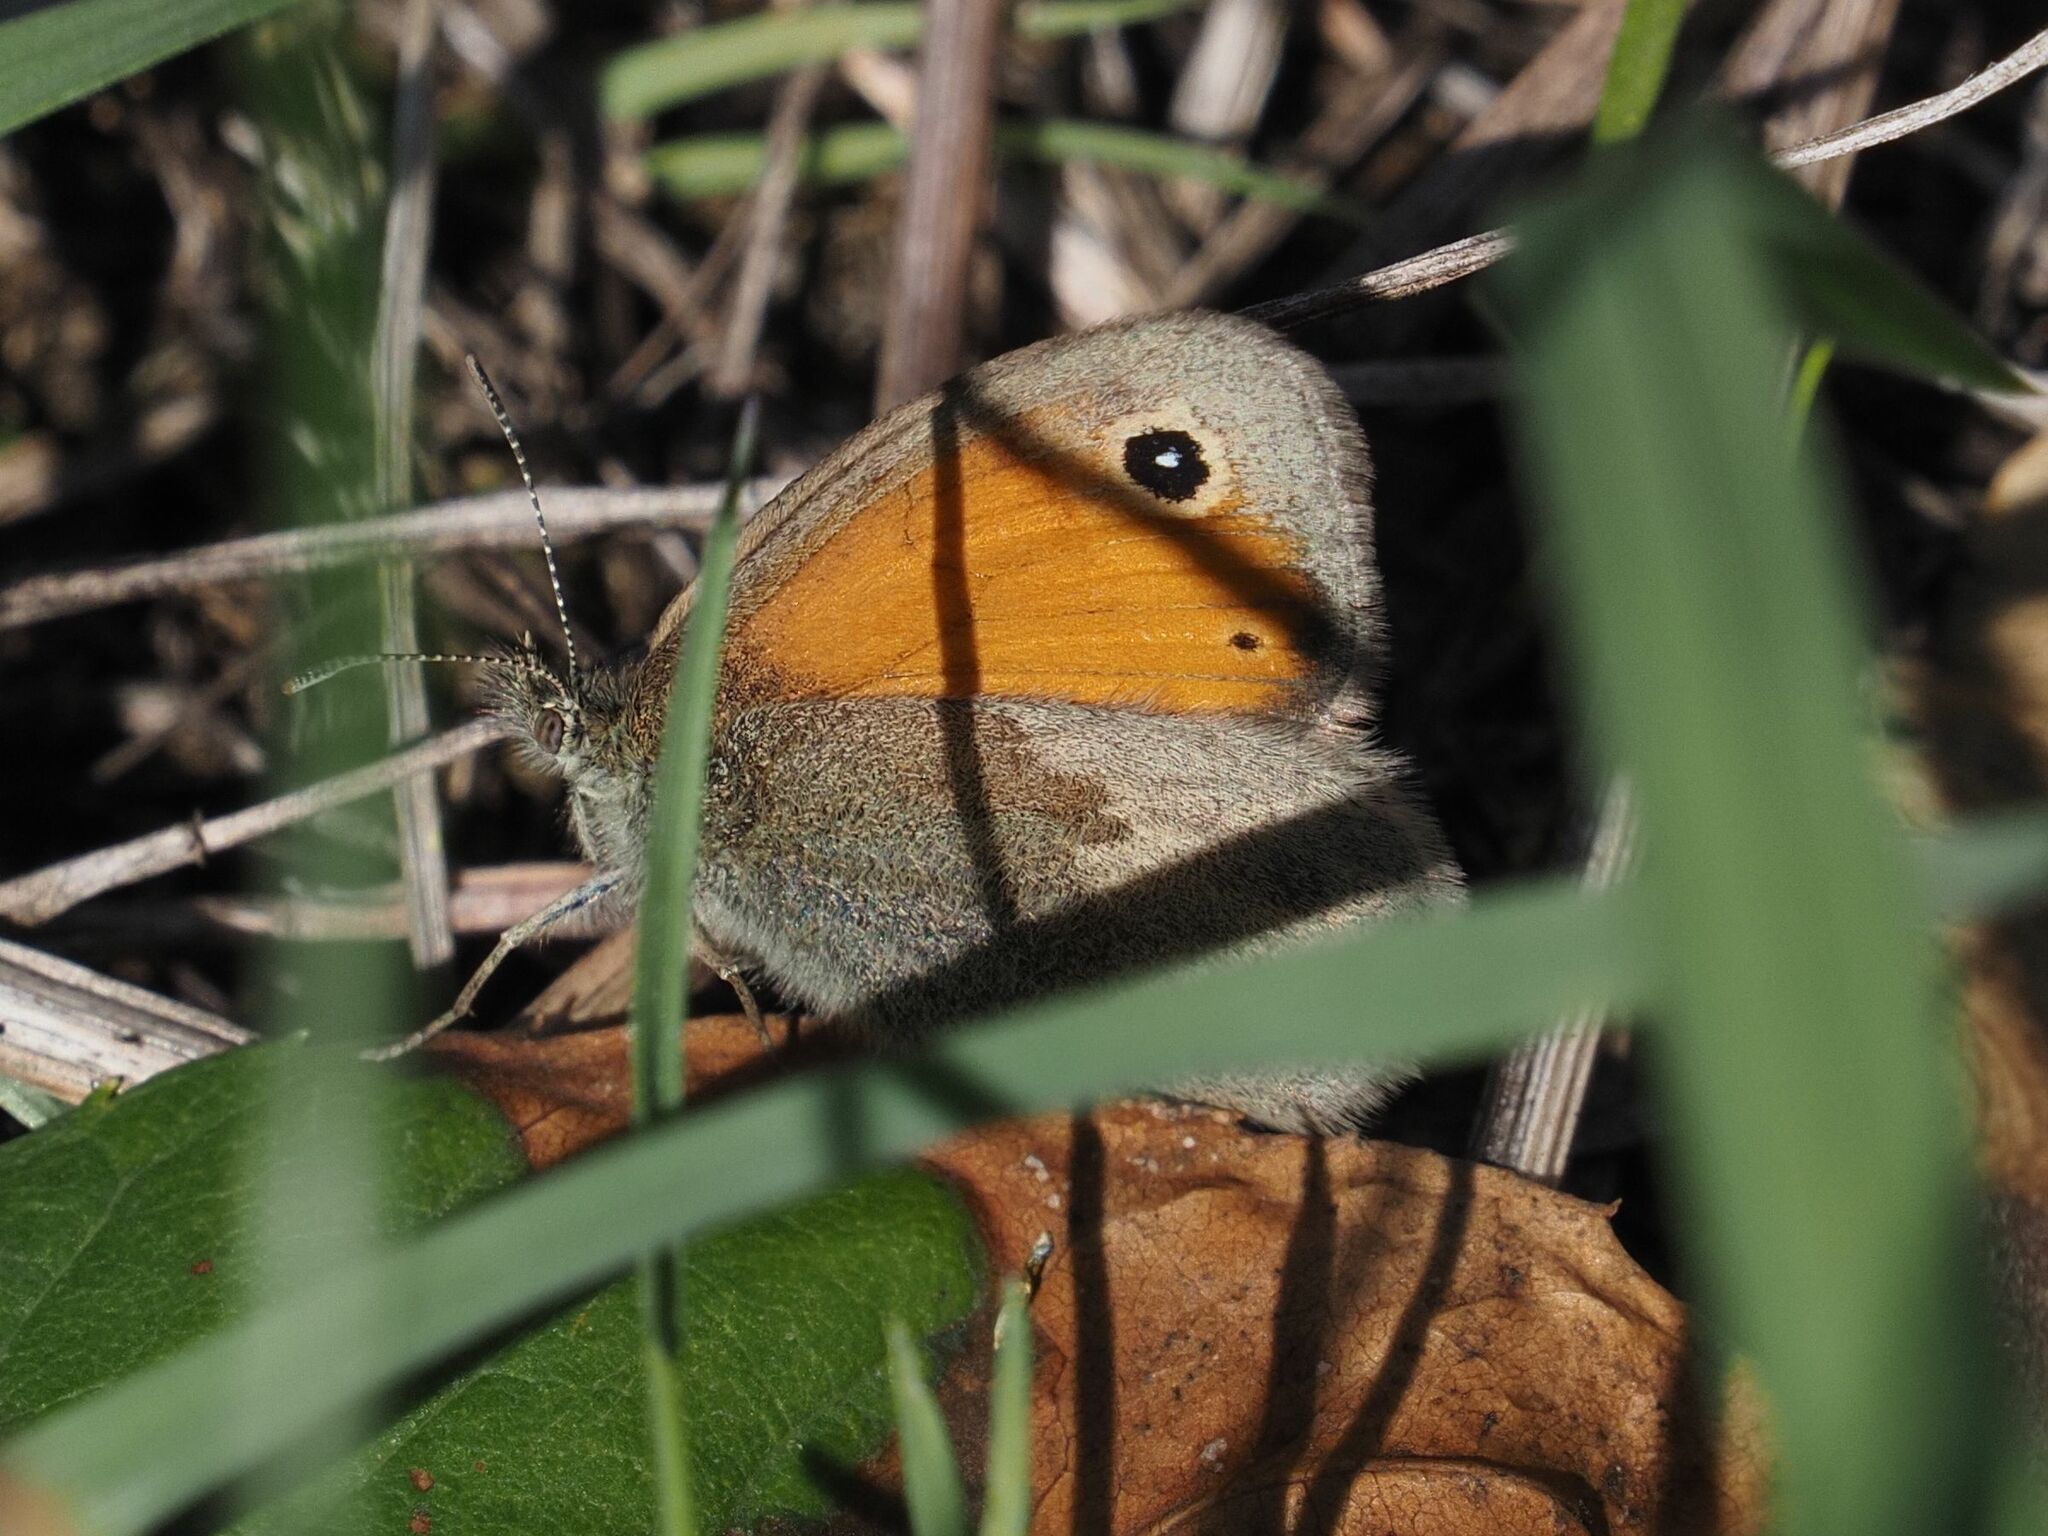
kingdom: Animalia
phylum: Arthropoda
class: Insecta
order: Lepidoptera
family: Nymphalidae
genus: Coenonympha
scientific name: Coenonympha pamphilus
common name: Small heath
